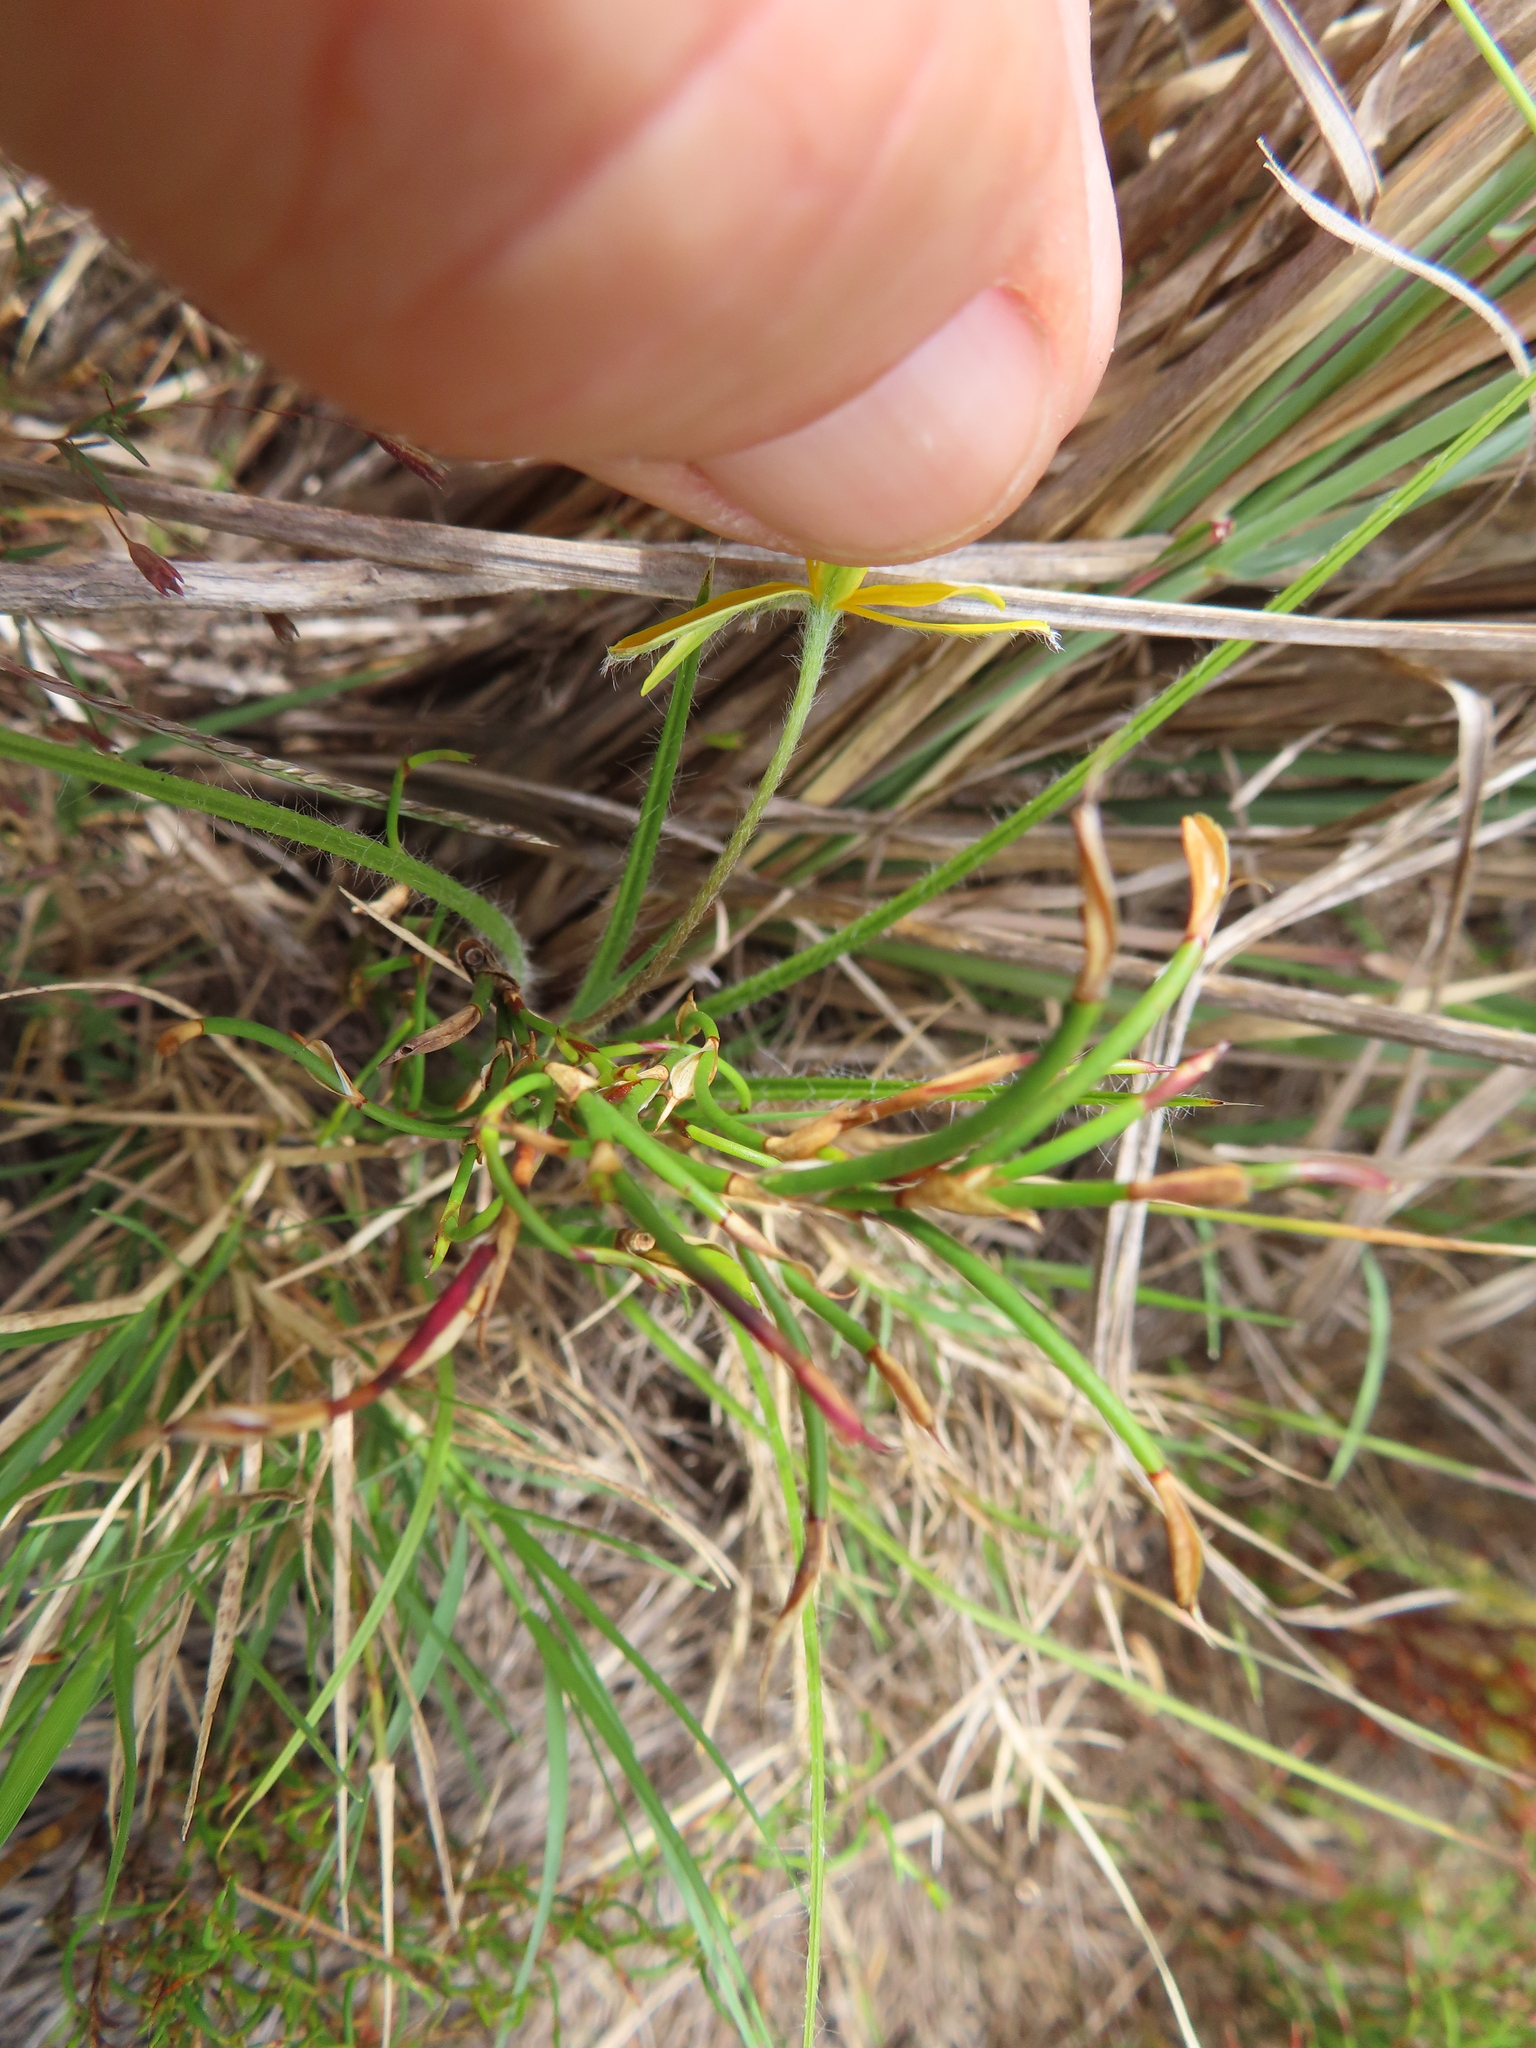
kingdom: Plantae
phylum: Tracheophyta
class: Liliopsida
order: Asparagales
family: Hypoxidaceae
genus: Hypoxis
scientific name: Hypoxis floccosa
